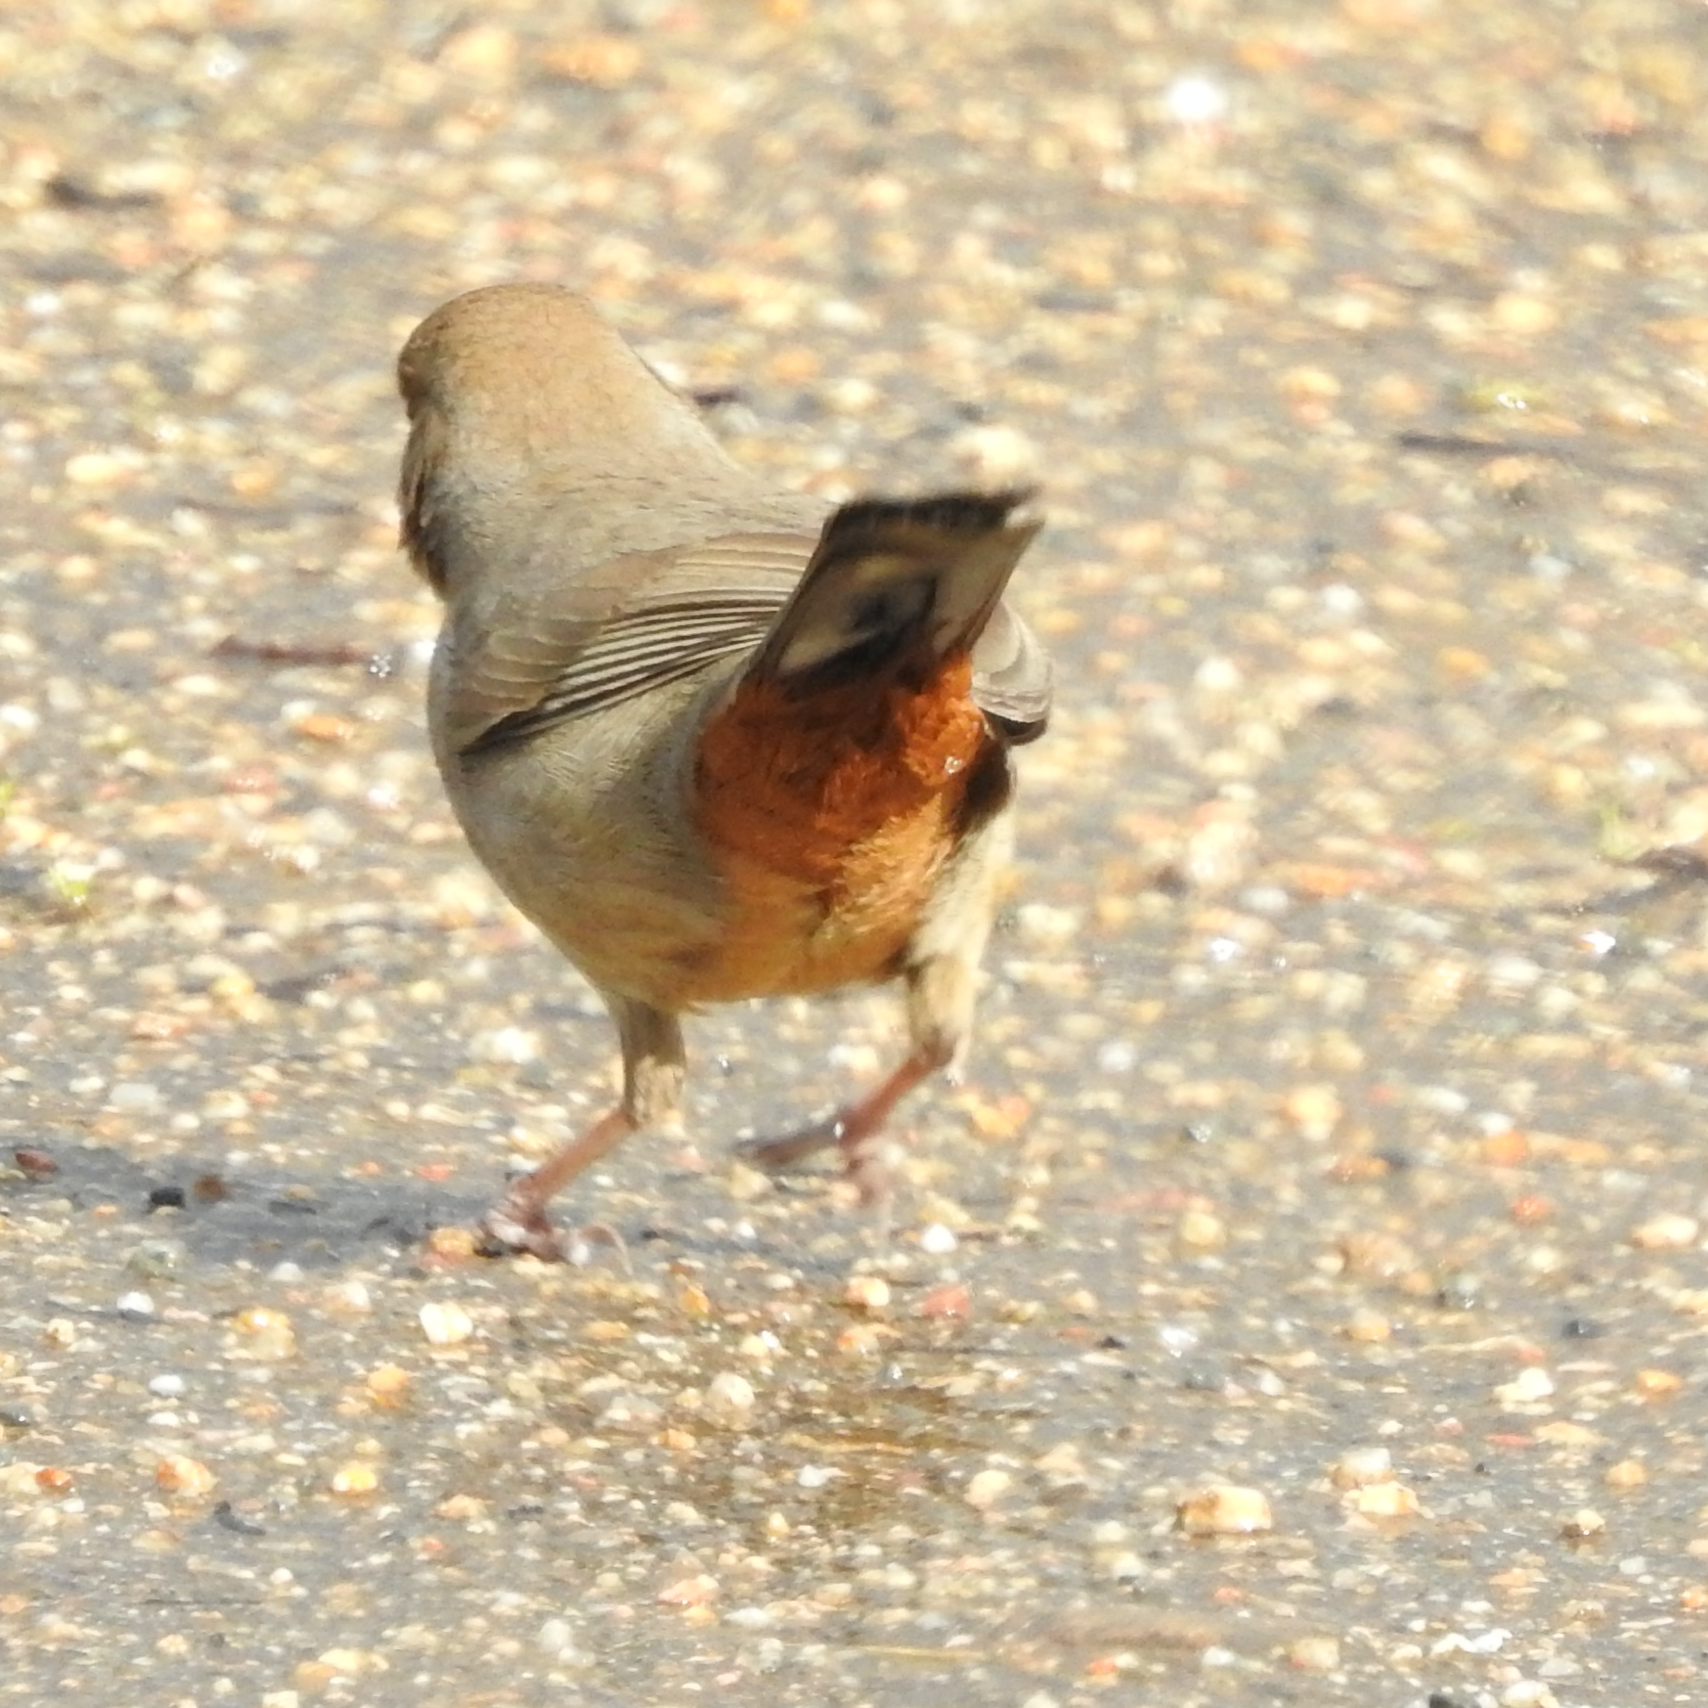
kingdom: Animalia
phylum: Chordata
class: Aves
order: Passeriformes
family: Passerellidae
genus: Melozone
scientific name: Melozone crissalis
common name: California towhee
